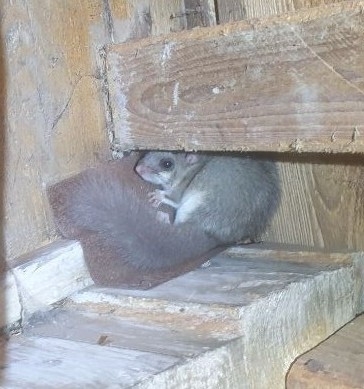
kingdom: Animalia
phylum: Chordata
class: Mammalia
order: Rodentia
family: Gliridae
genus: Glis
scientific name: Glis glis
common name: Fat dormouse
